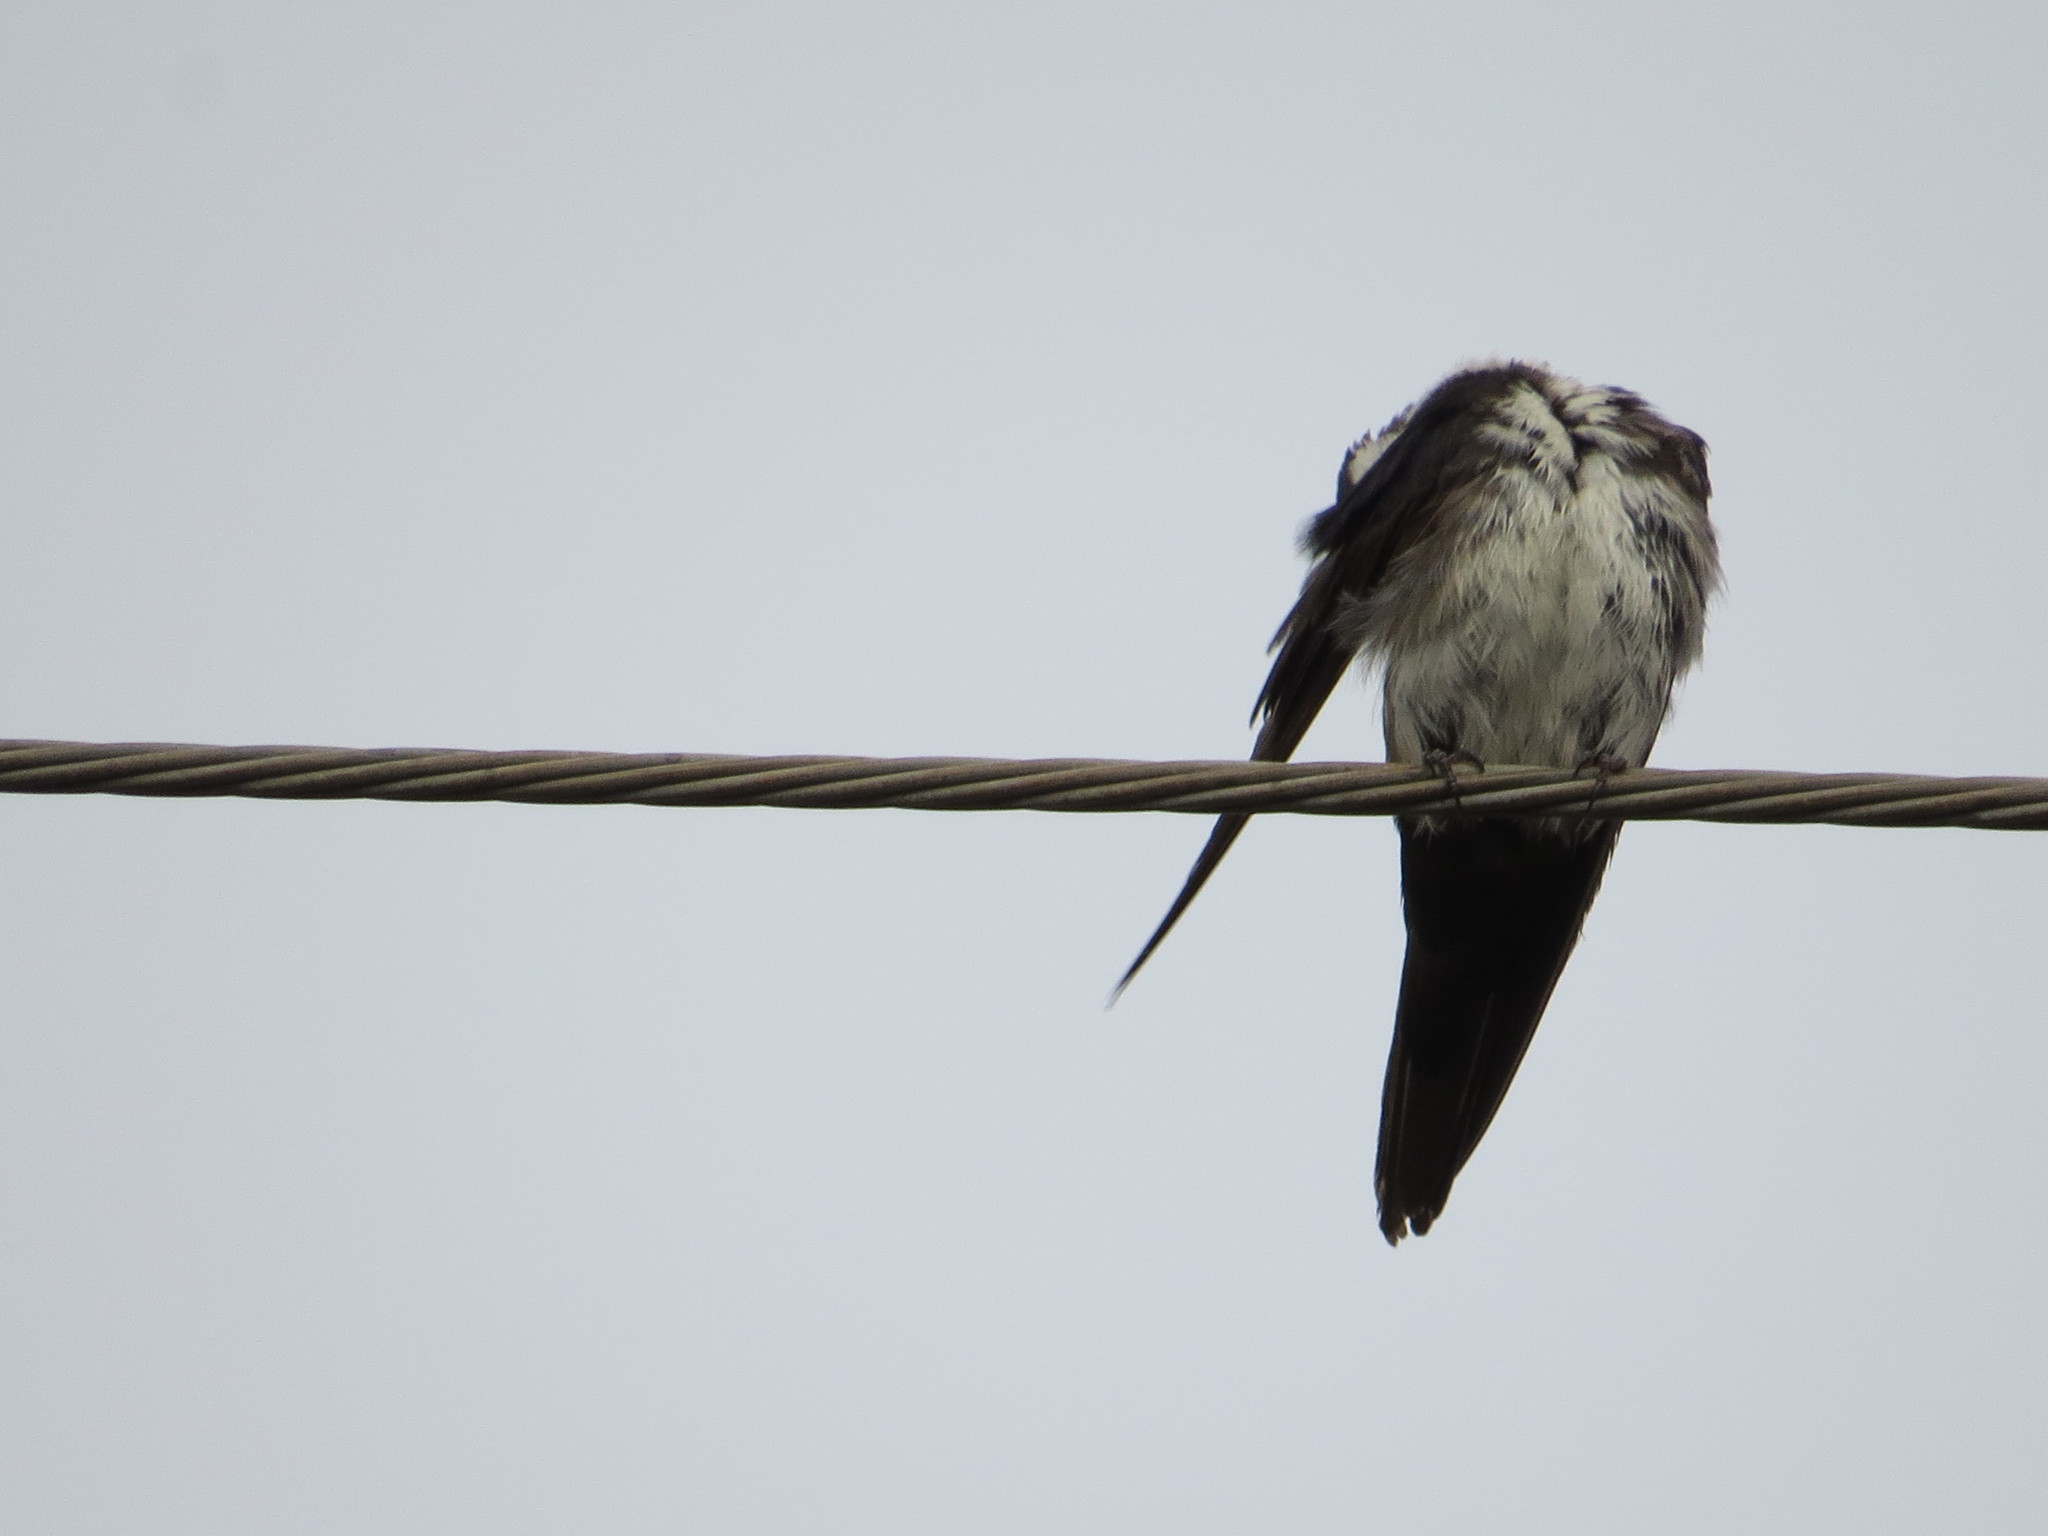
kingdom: Animalia
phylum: Chordata
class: Aves
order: Passeriformes
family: Hirundinidae
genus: Stelgidopteryx
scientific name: Stelgidopteryx ruficollis
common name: Southern rough-winged swallow
